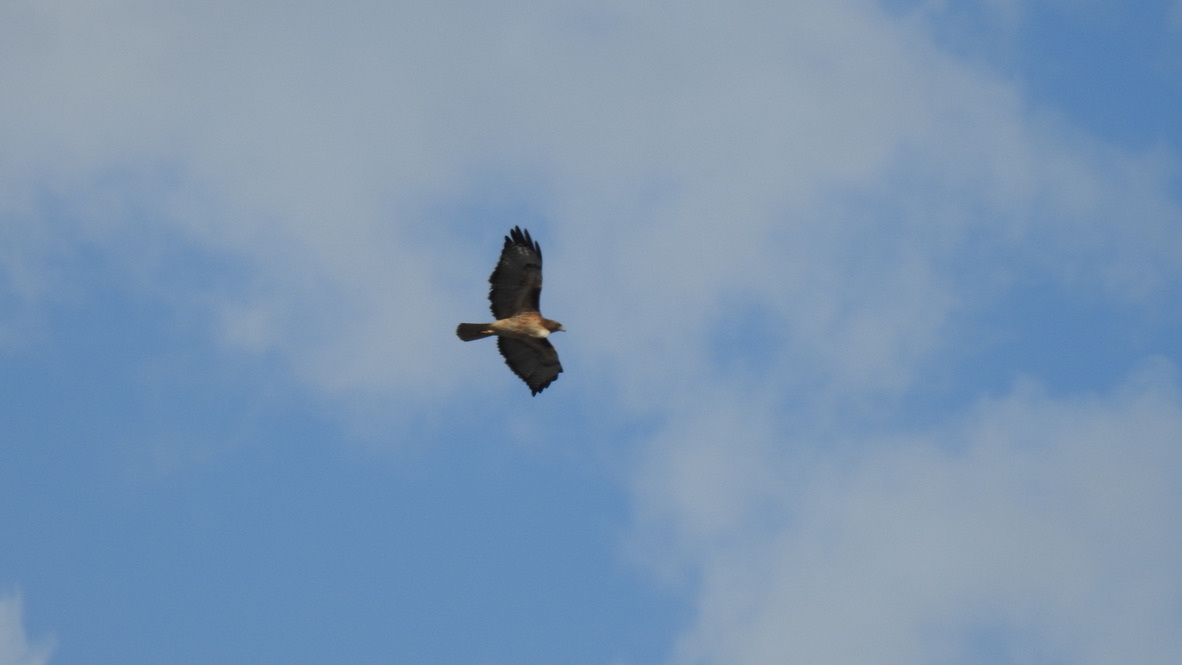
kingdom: Animalia
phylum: Chordata
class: Aves
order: Accipitriformes
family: Accipitridae
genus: Buteo
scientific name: Buteo jamaicensis
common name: Red-tailed hawk
